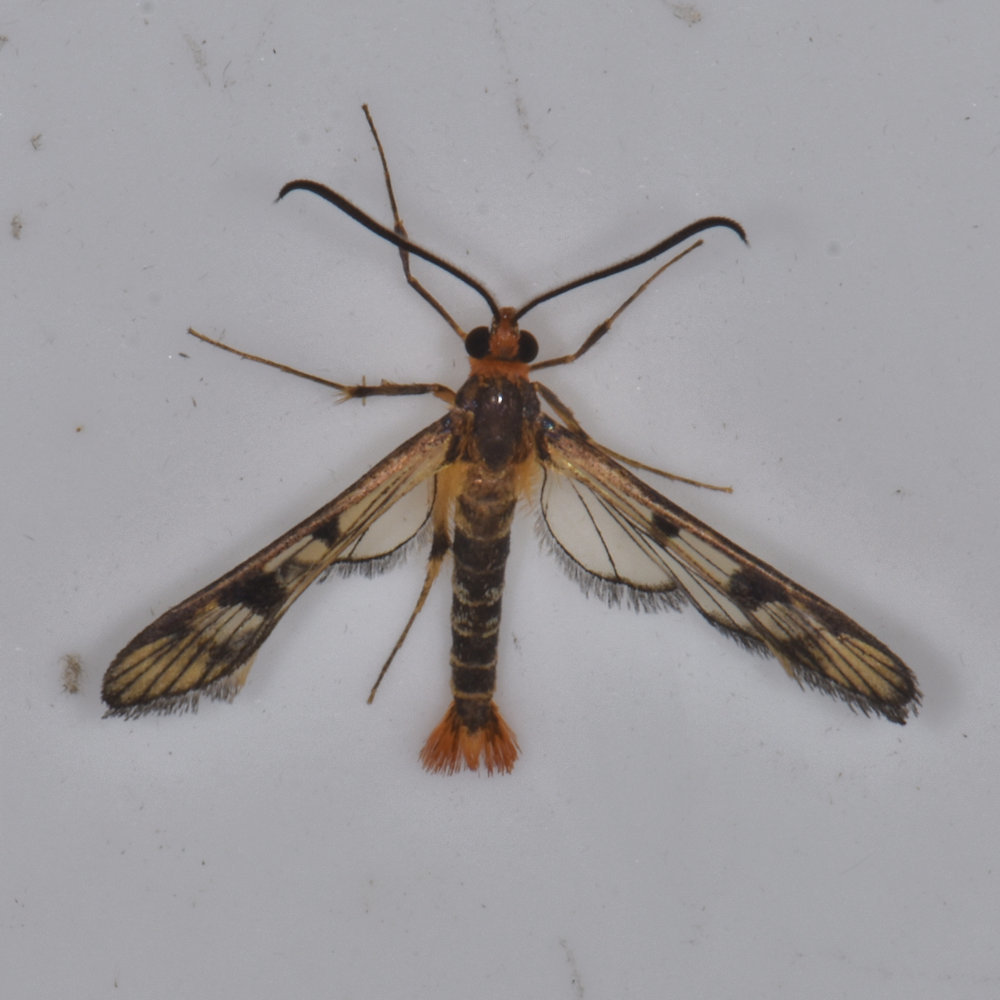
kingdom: Animalia
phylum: Arthropoda
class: Insecta
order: Lepidoptera
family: Sesiidae
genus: Synanthedon
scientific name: Synanthedon acerni
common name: Maple callus borer moth
